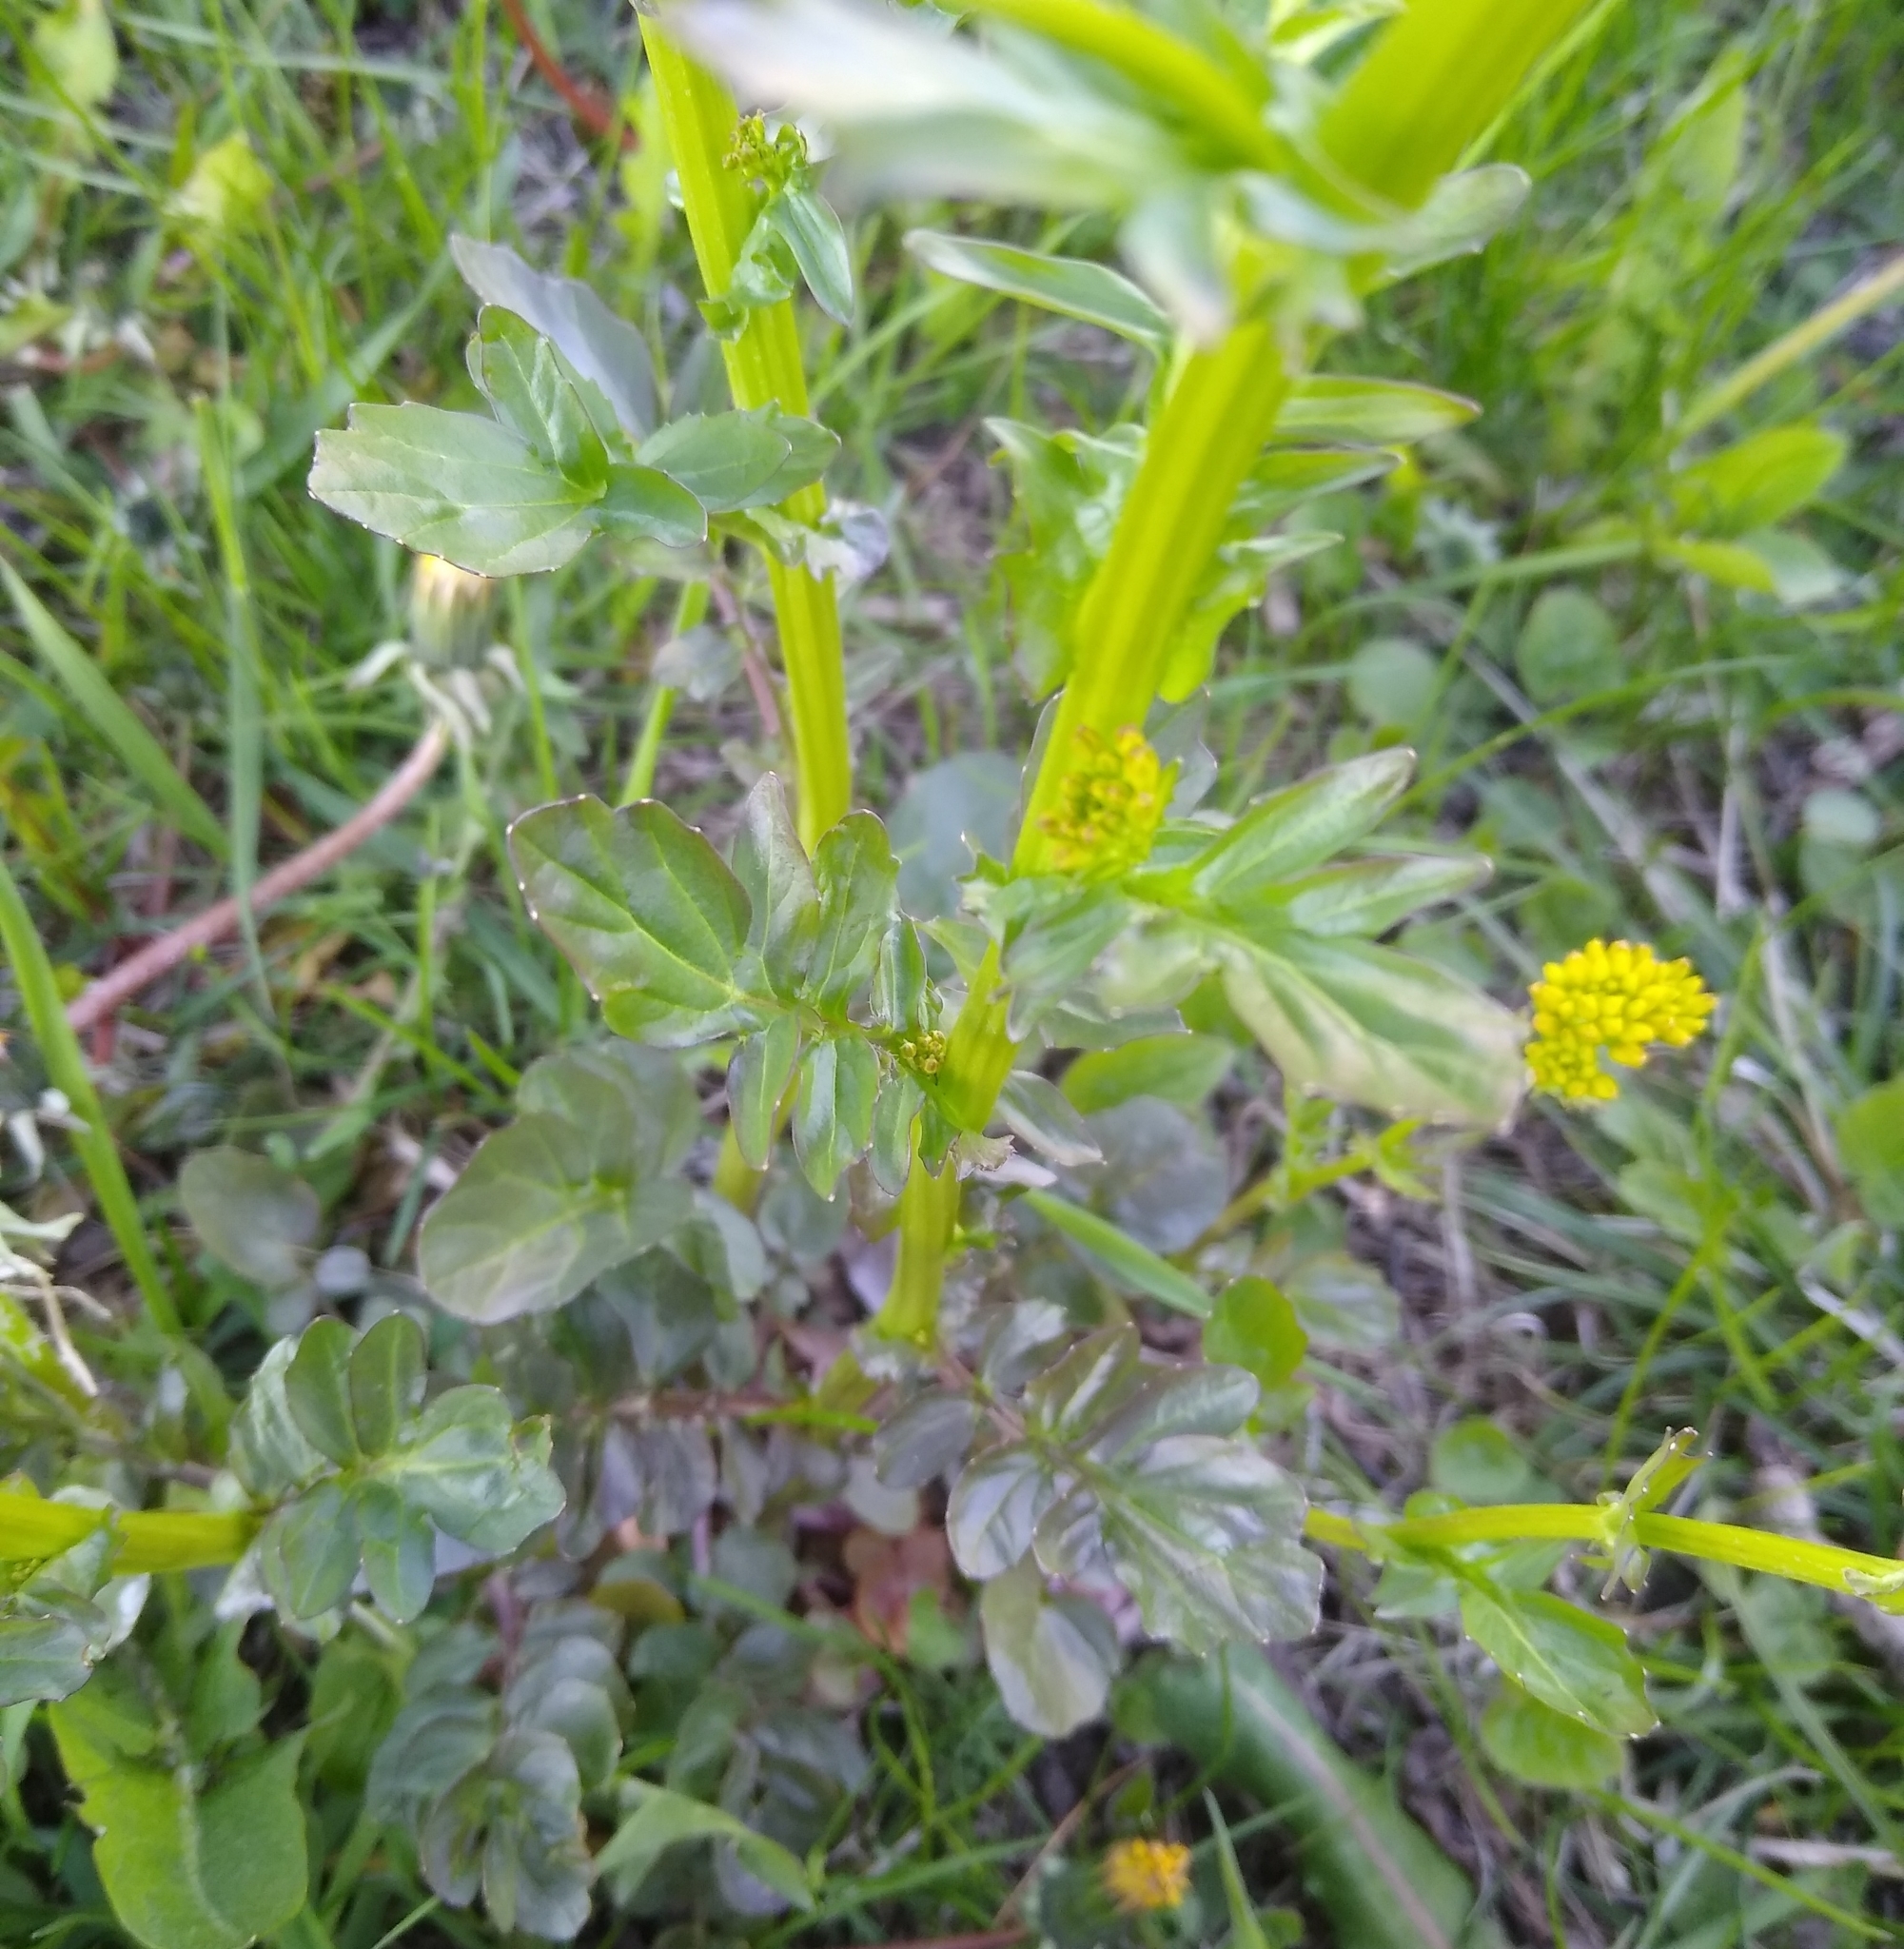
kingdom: Plantae
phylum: Tracheophyta
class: Magnoliopsida
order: Brassicales
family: Brassicaceae
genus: Barbarea
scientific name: Barbarea vulgaris
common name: Cressy-greens
